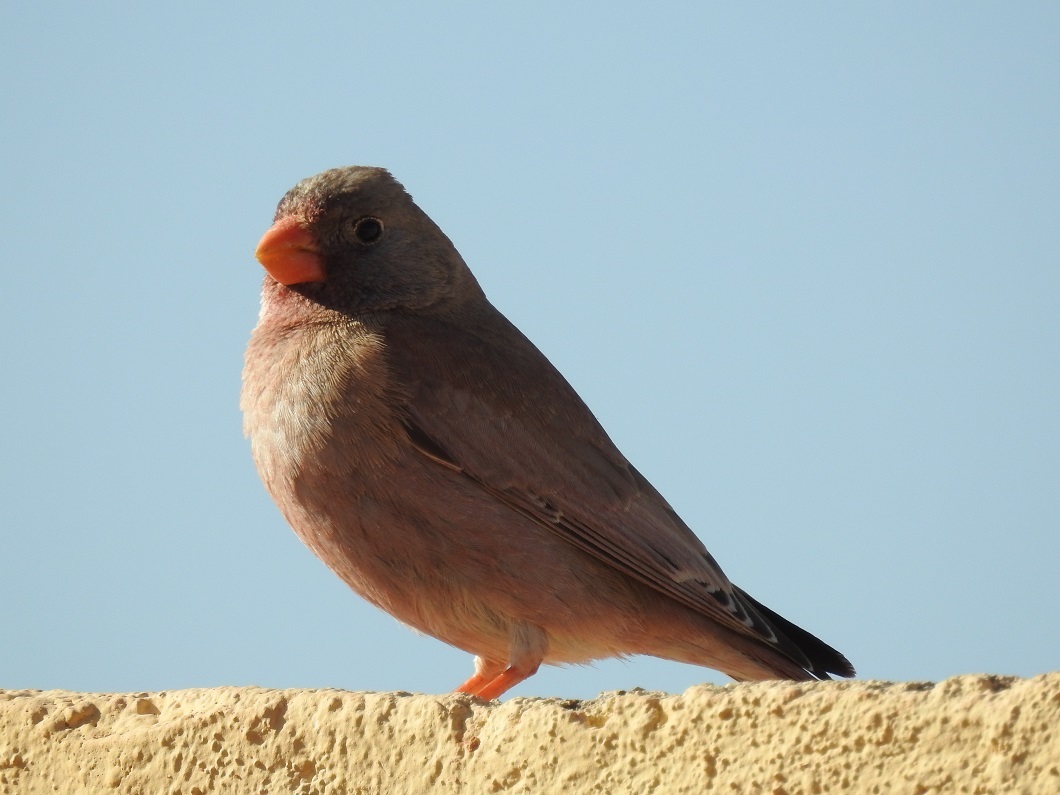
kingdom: Animalia
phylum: Chordata
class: Aves
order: Passeriformes
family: Fringillidae
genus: Bucanetes
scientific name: Bucanetes githagineus
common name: Trumpeter finch
